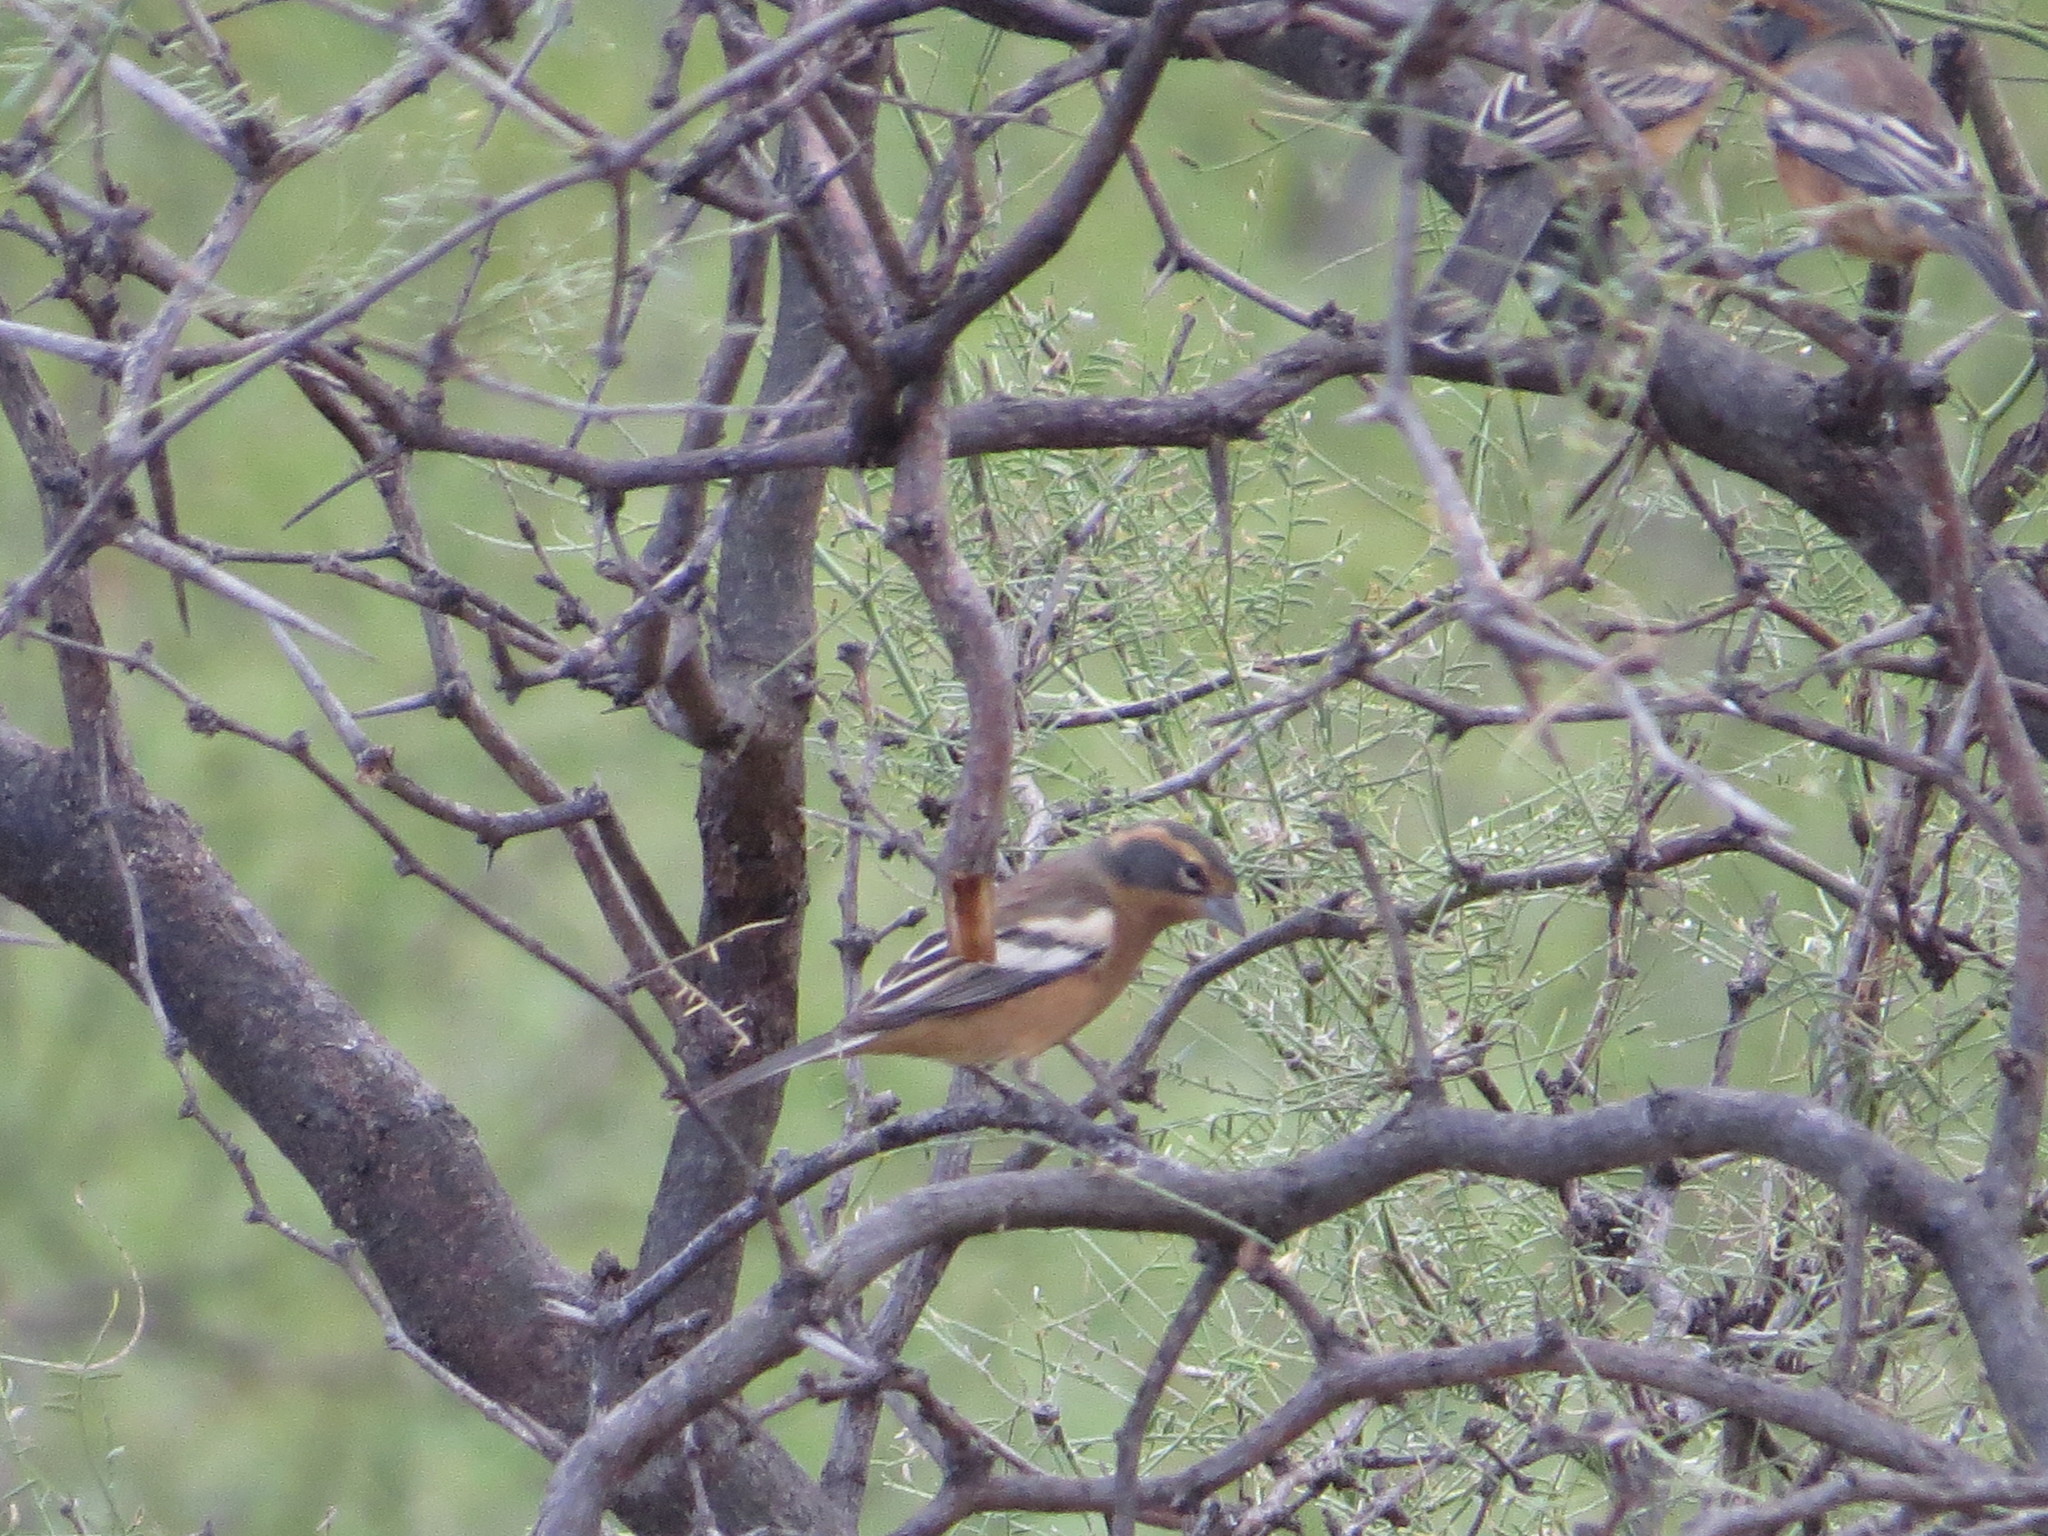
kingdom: Animalia
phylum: Chordata
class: Aves
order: Passeriformes
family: Thraupidae
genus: Poospiza
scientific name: Poospiza ornata
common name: Cinnamon warbling finch
